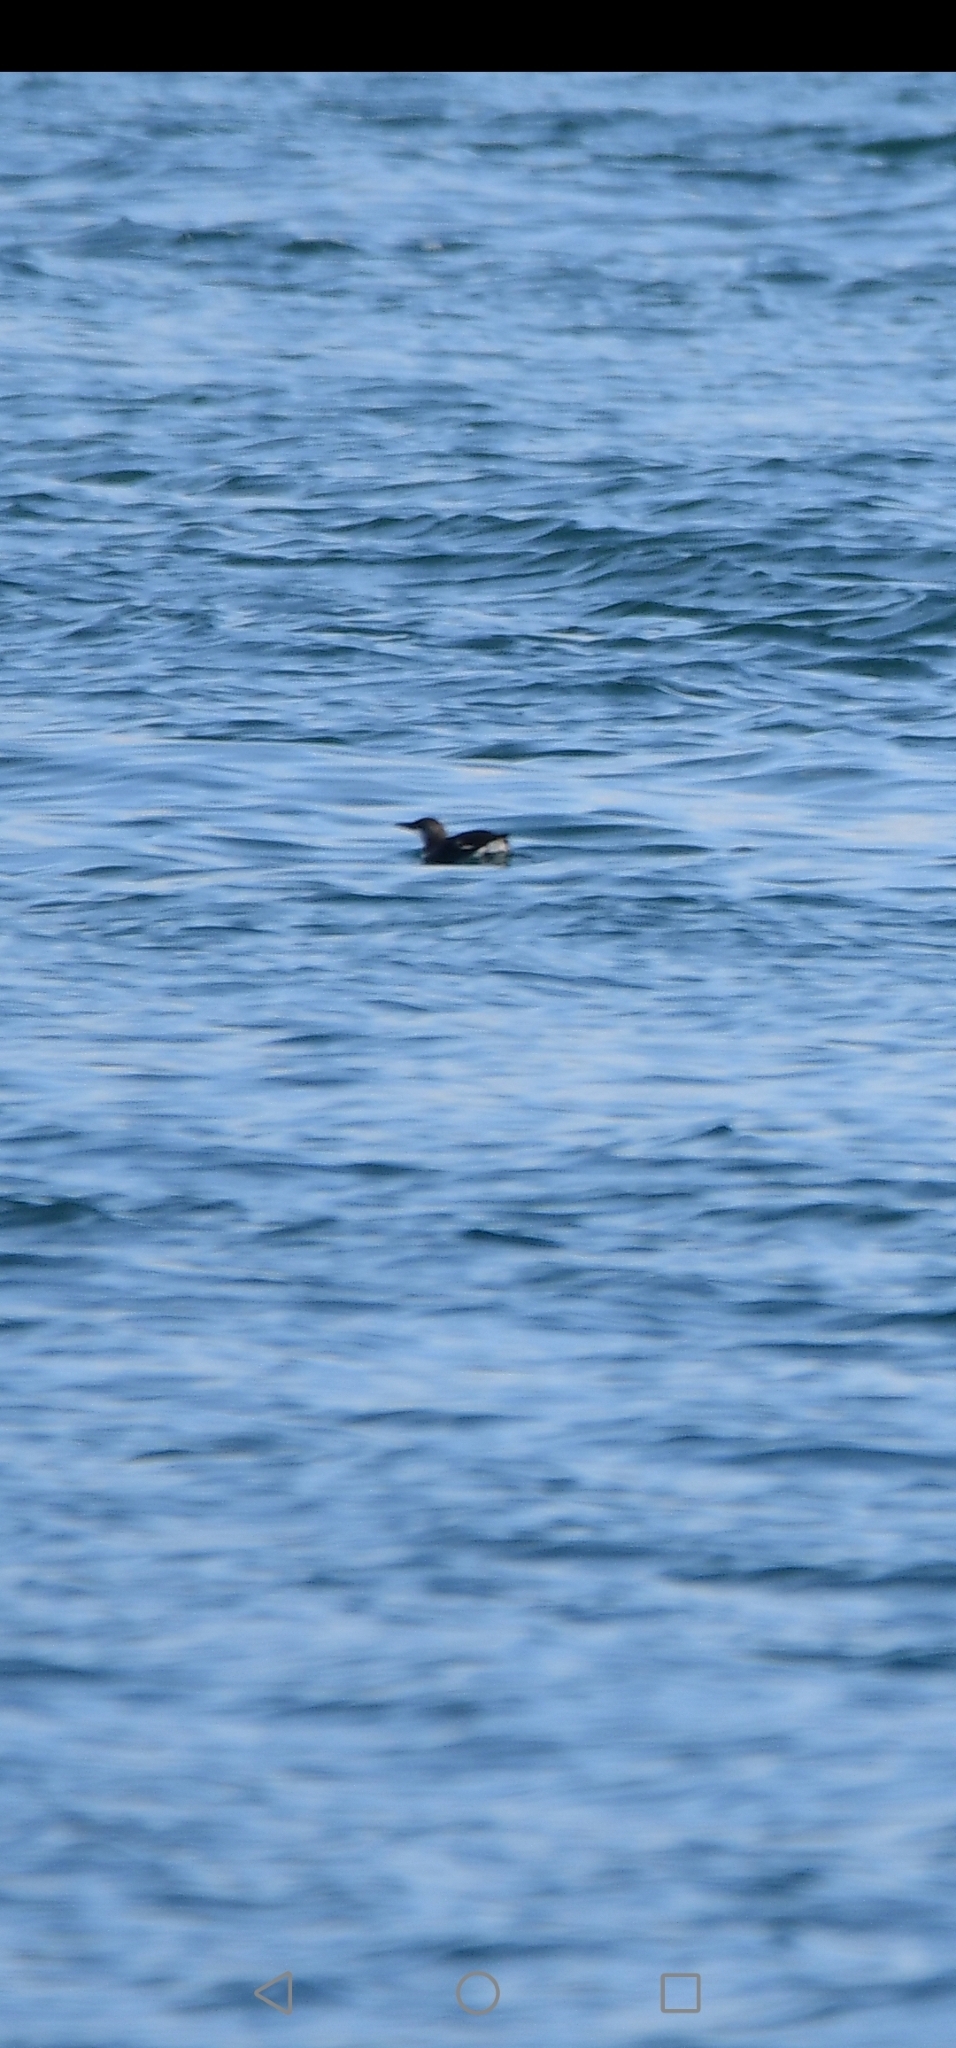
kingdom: Animalia
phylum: Chordata
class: Aves
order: Charadriiformes
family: Alcidae
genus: Alca
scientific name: Alca torda
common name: Razorbill
